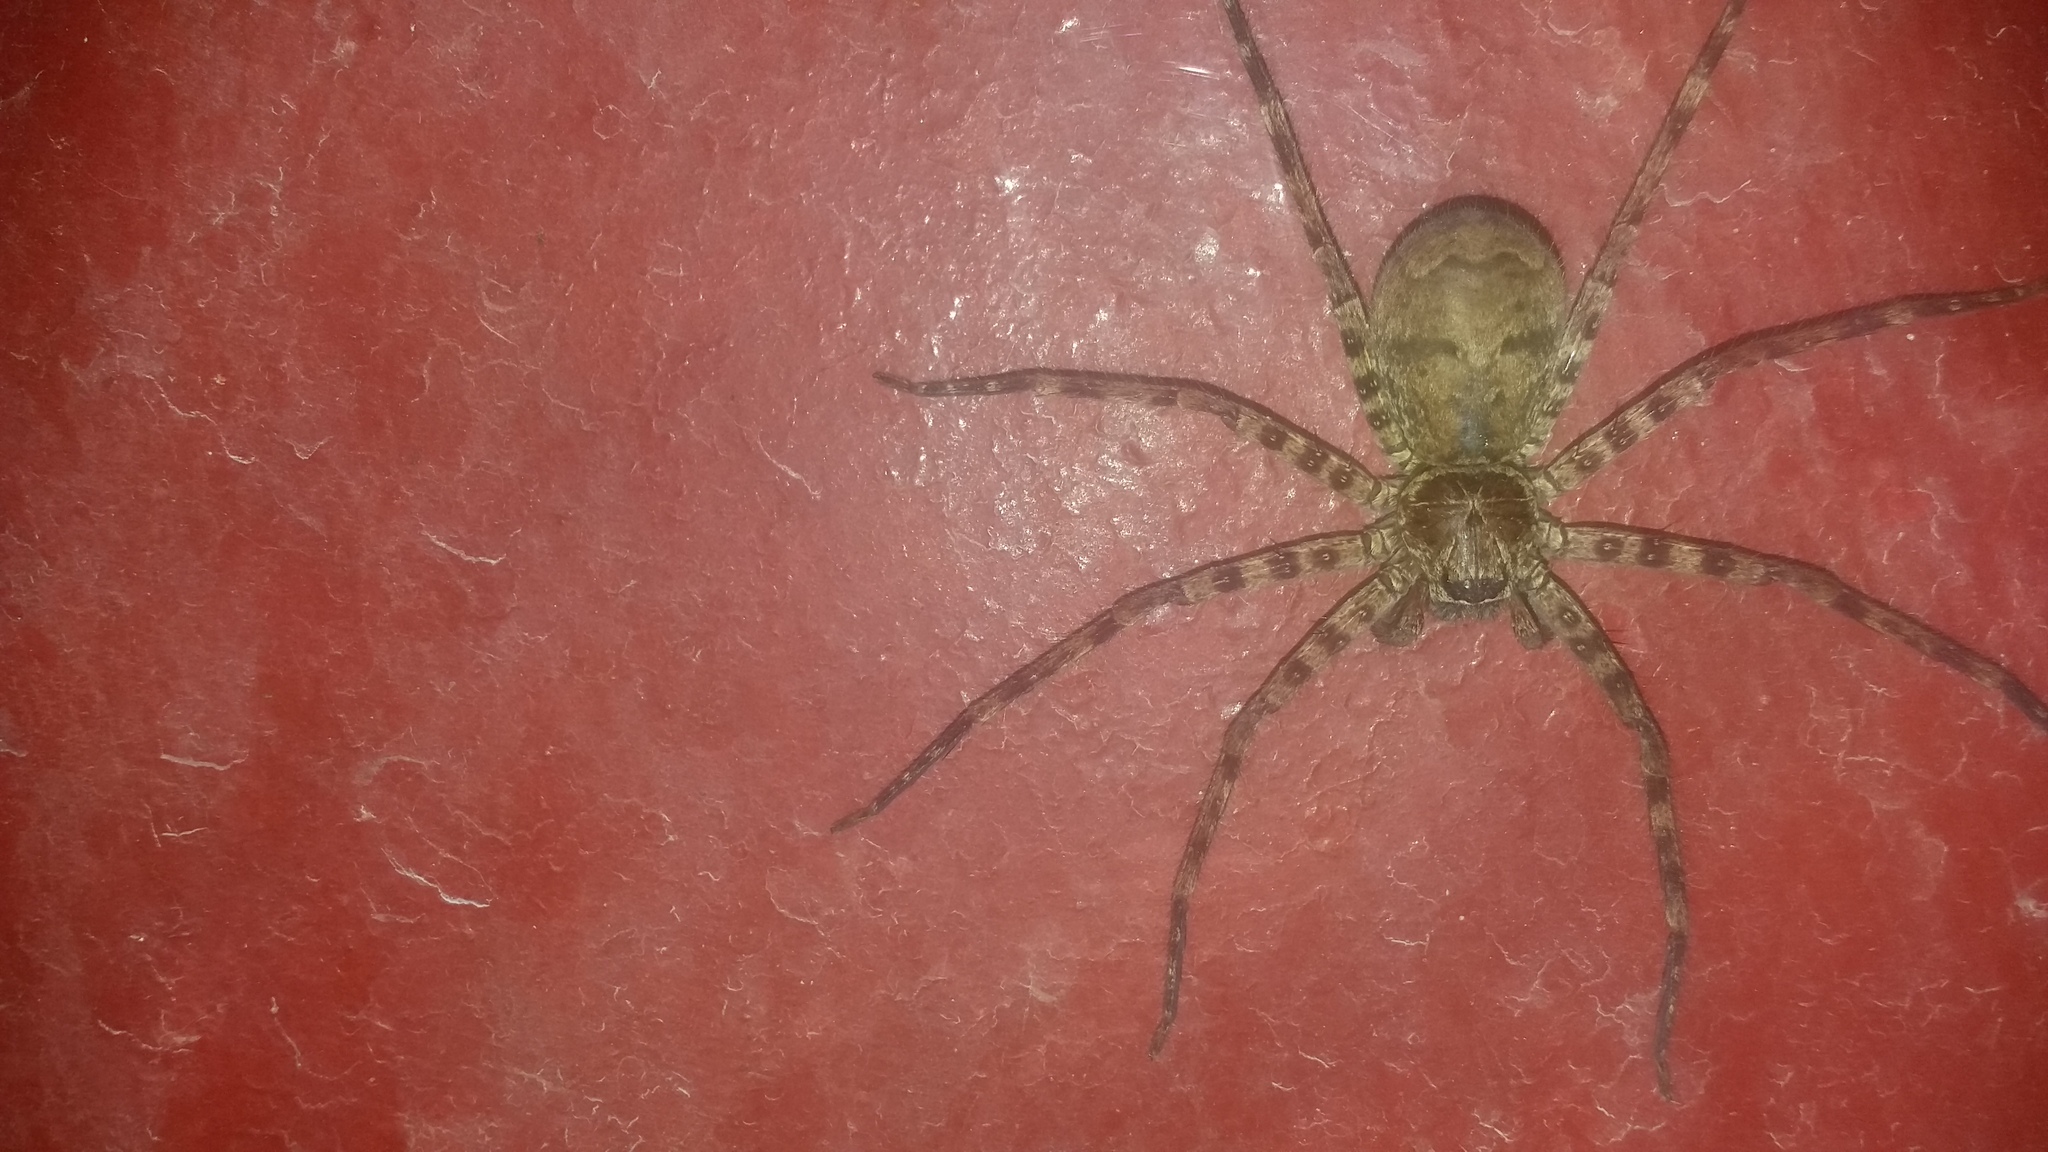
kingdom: Animalia
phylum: Arthropoda
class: Arachnida
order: Araneae
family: Sparassidae
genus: Heteropoda
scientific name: Heteropoda venatoria
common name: Huntsman spider
